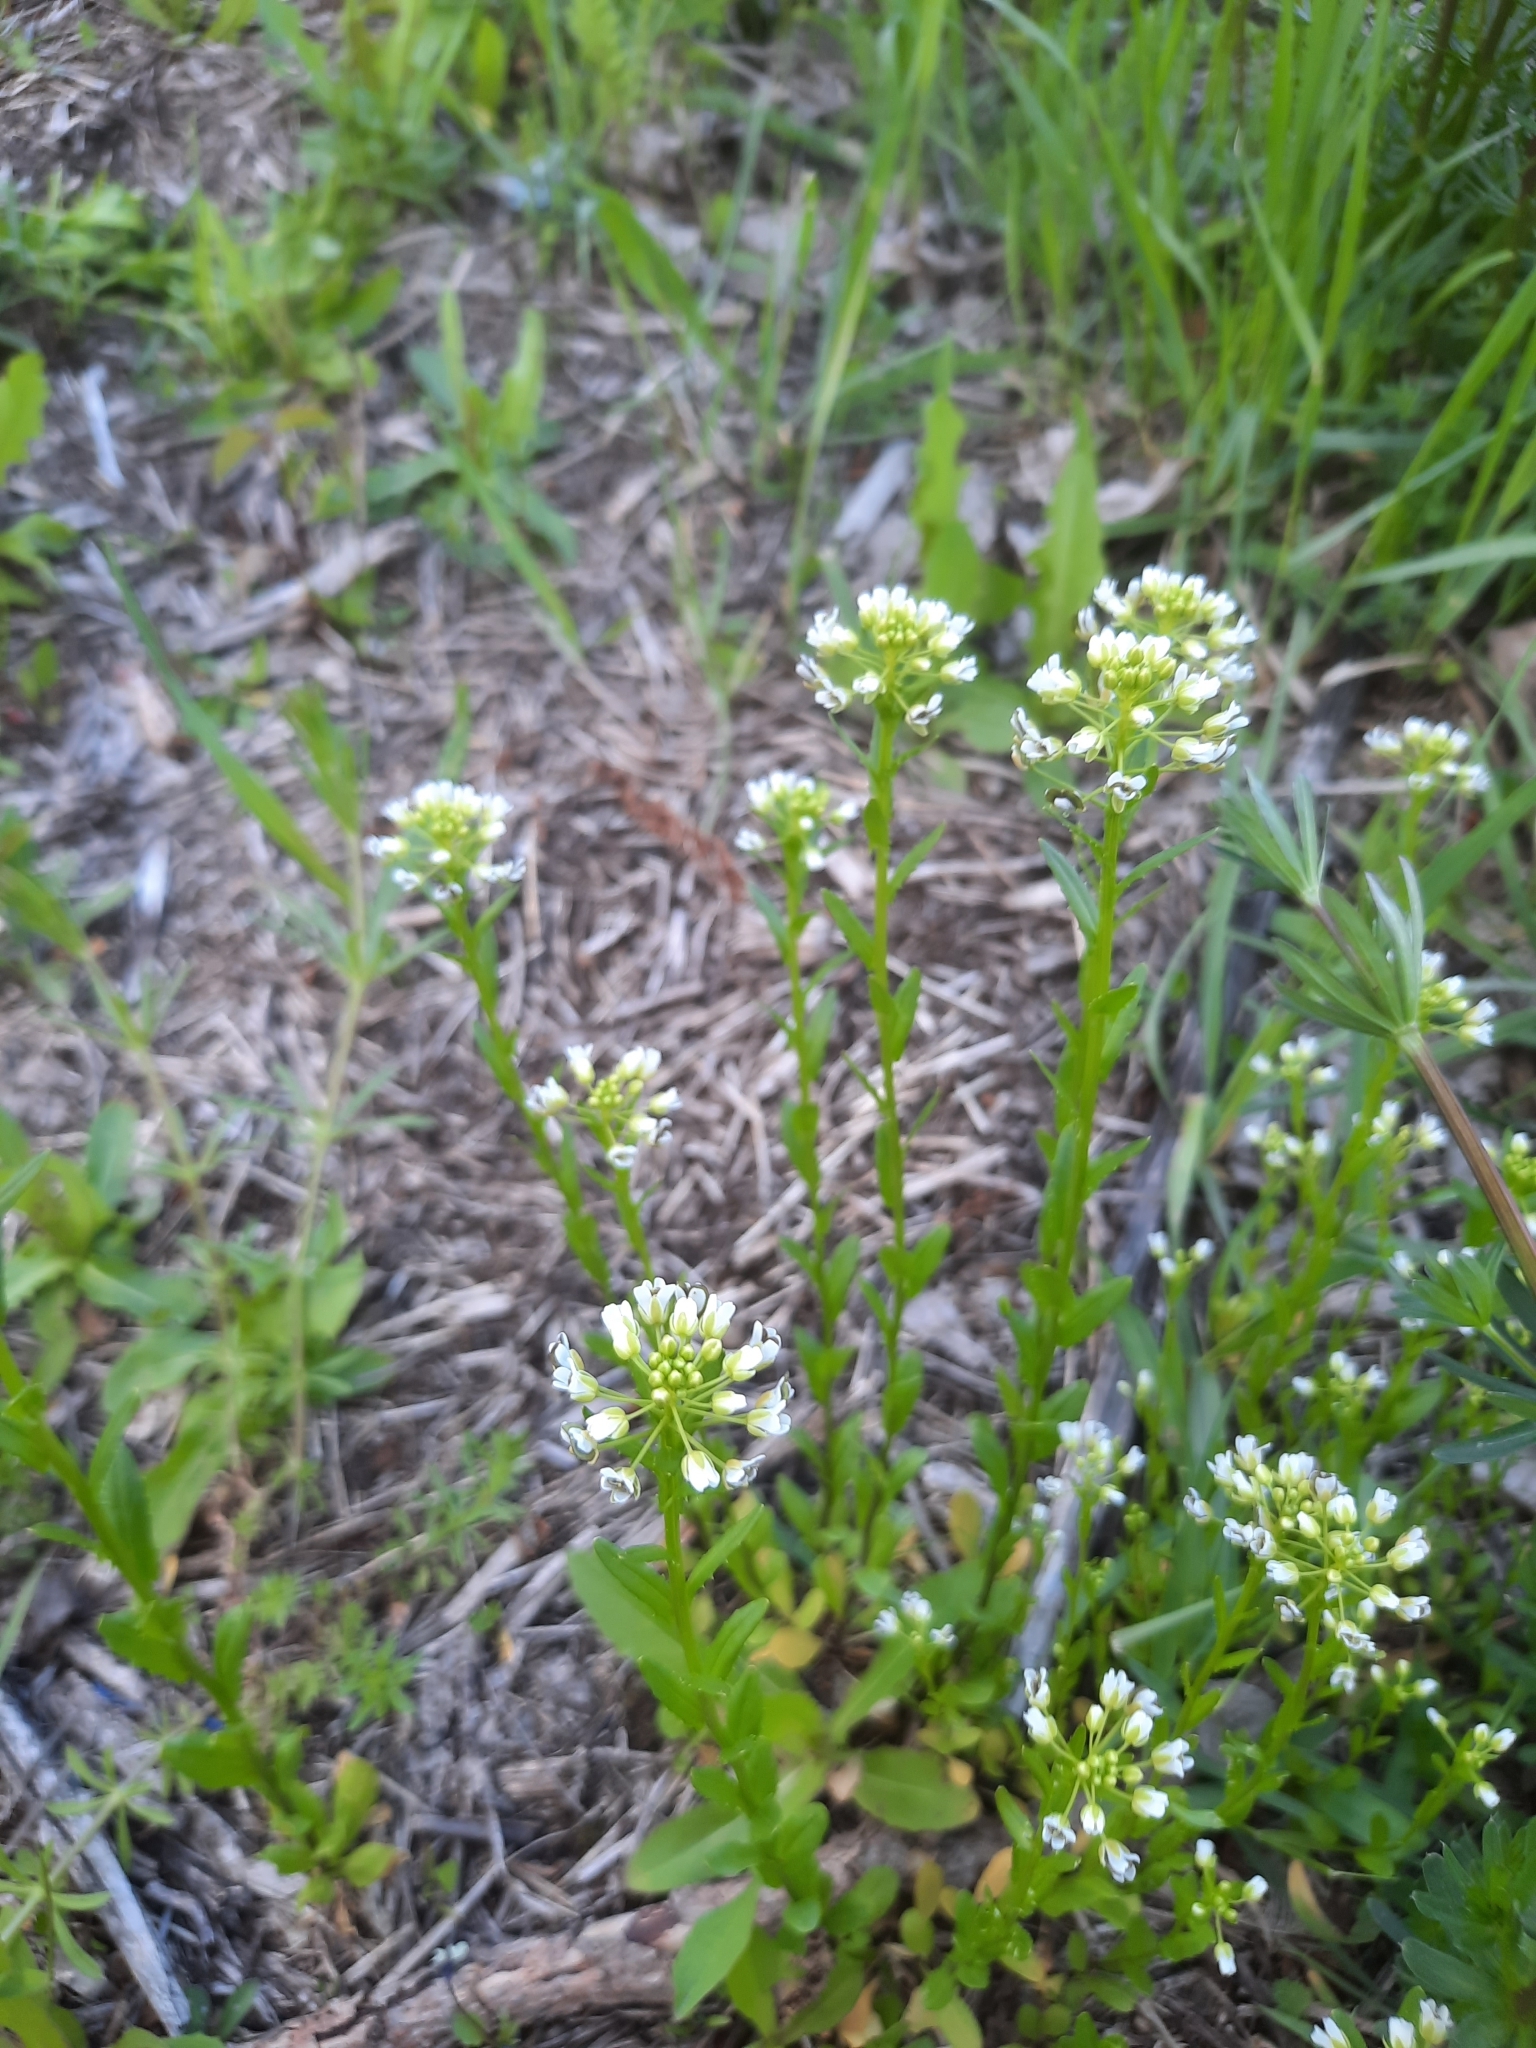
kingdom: Plantae
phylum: Tracheophyta
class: Magnoliopsida
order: Brassicales
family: Brassicaceae
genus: Thlaspi
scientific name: Thlaspi arvense
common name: Field pennycress
